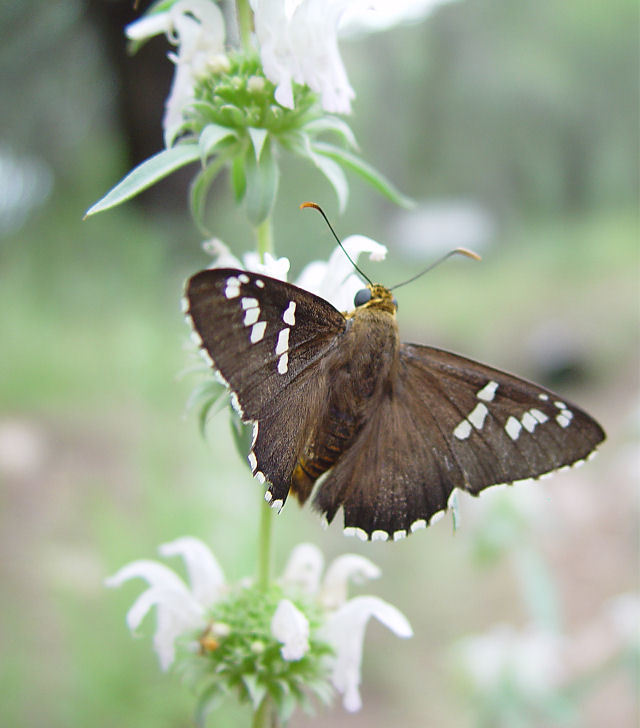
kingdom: Animalia
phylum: Arthropoda
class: Insecta
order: Lepidoptera
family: Hesperiidae
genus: Pyrrhopyge
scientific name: Pyrrhopyge araxes
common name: Dull firetip
